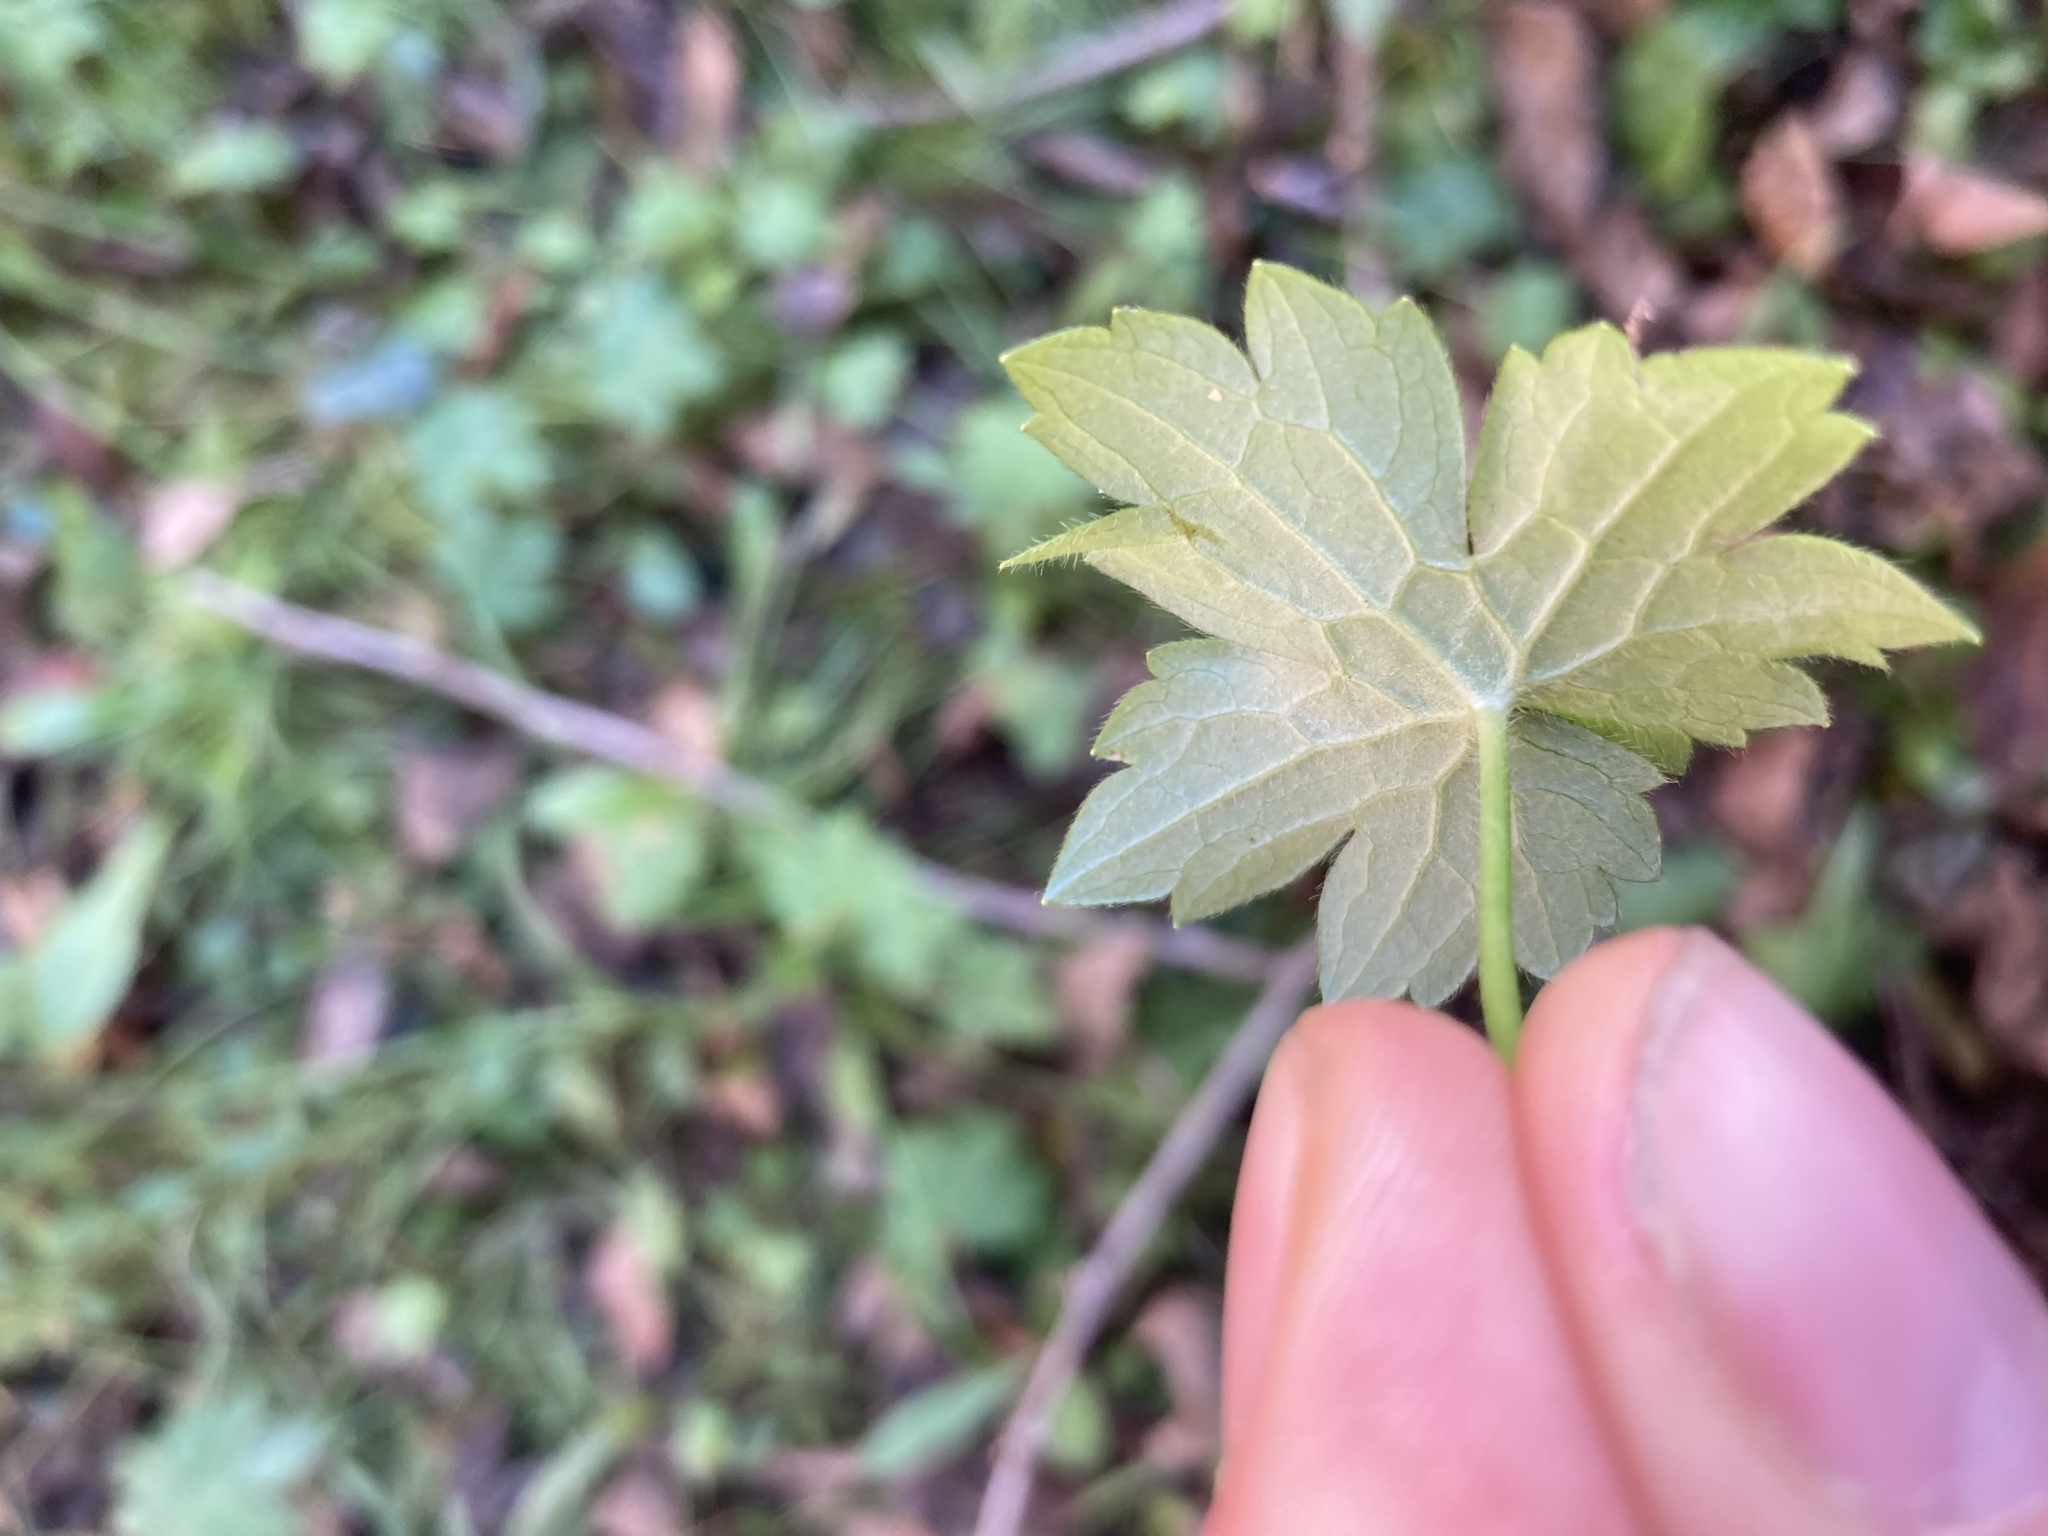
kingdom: Plantae
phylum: Tracheophyta
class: Magnoliopsida
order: Ranunculales
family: Ranunculaceae
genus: Ranunculus
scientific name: Ranunculus recurvatus
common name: Blisterwort
